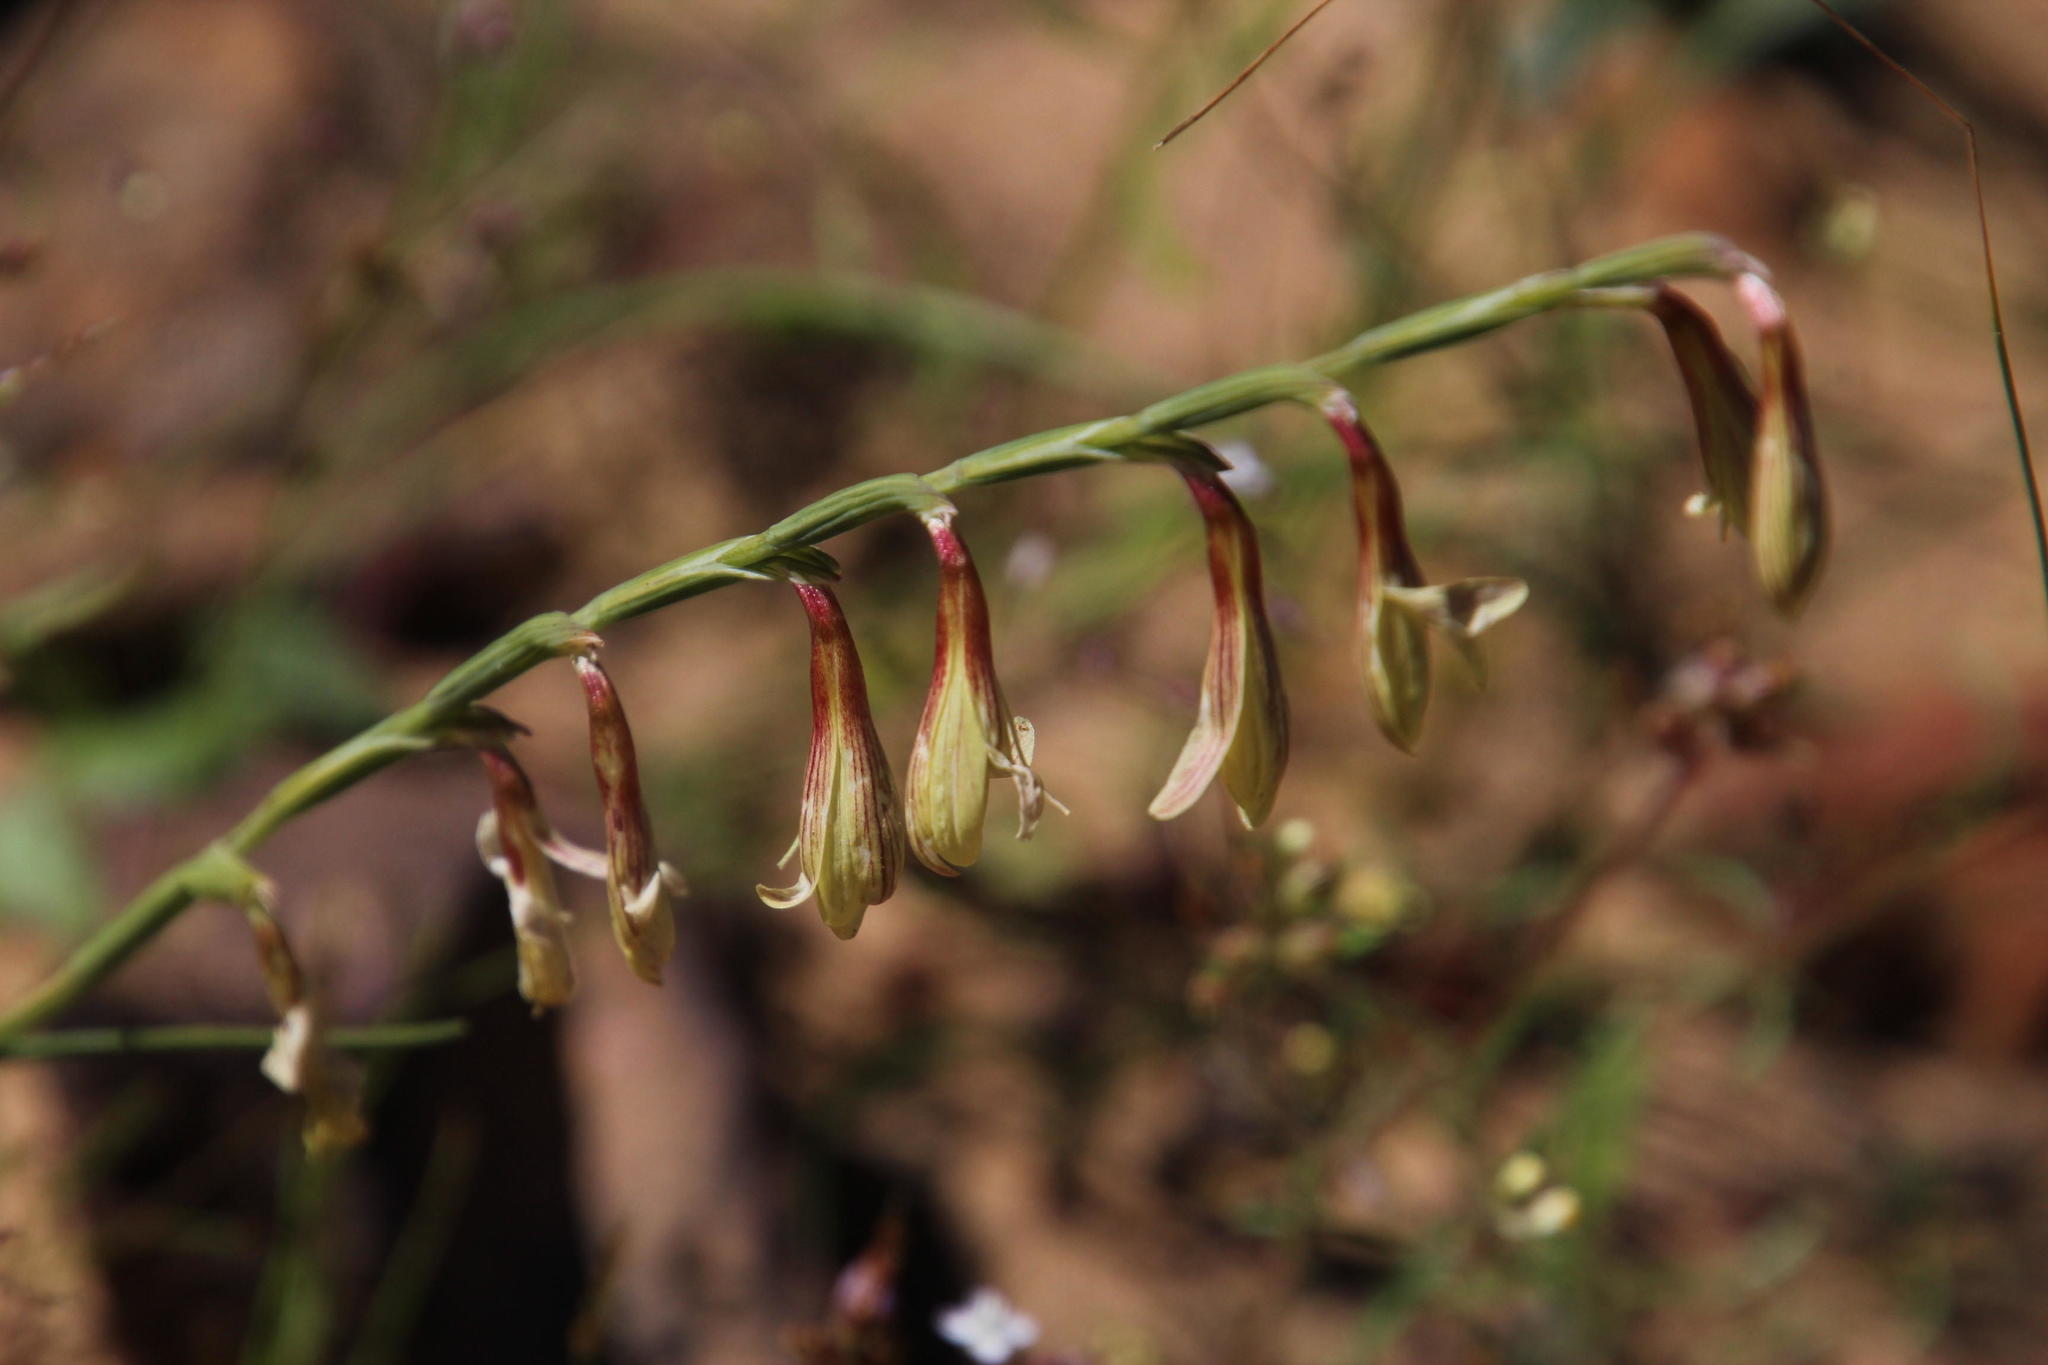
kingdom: Plantae
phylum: Tracheophyta
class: Liliopsida
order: Asparagales
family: Iridaceae
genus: Hesperantha
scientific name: Hesperantha radiata
